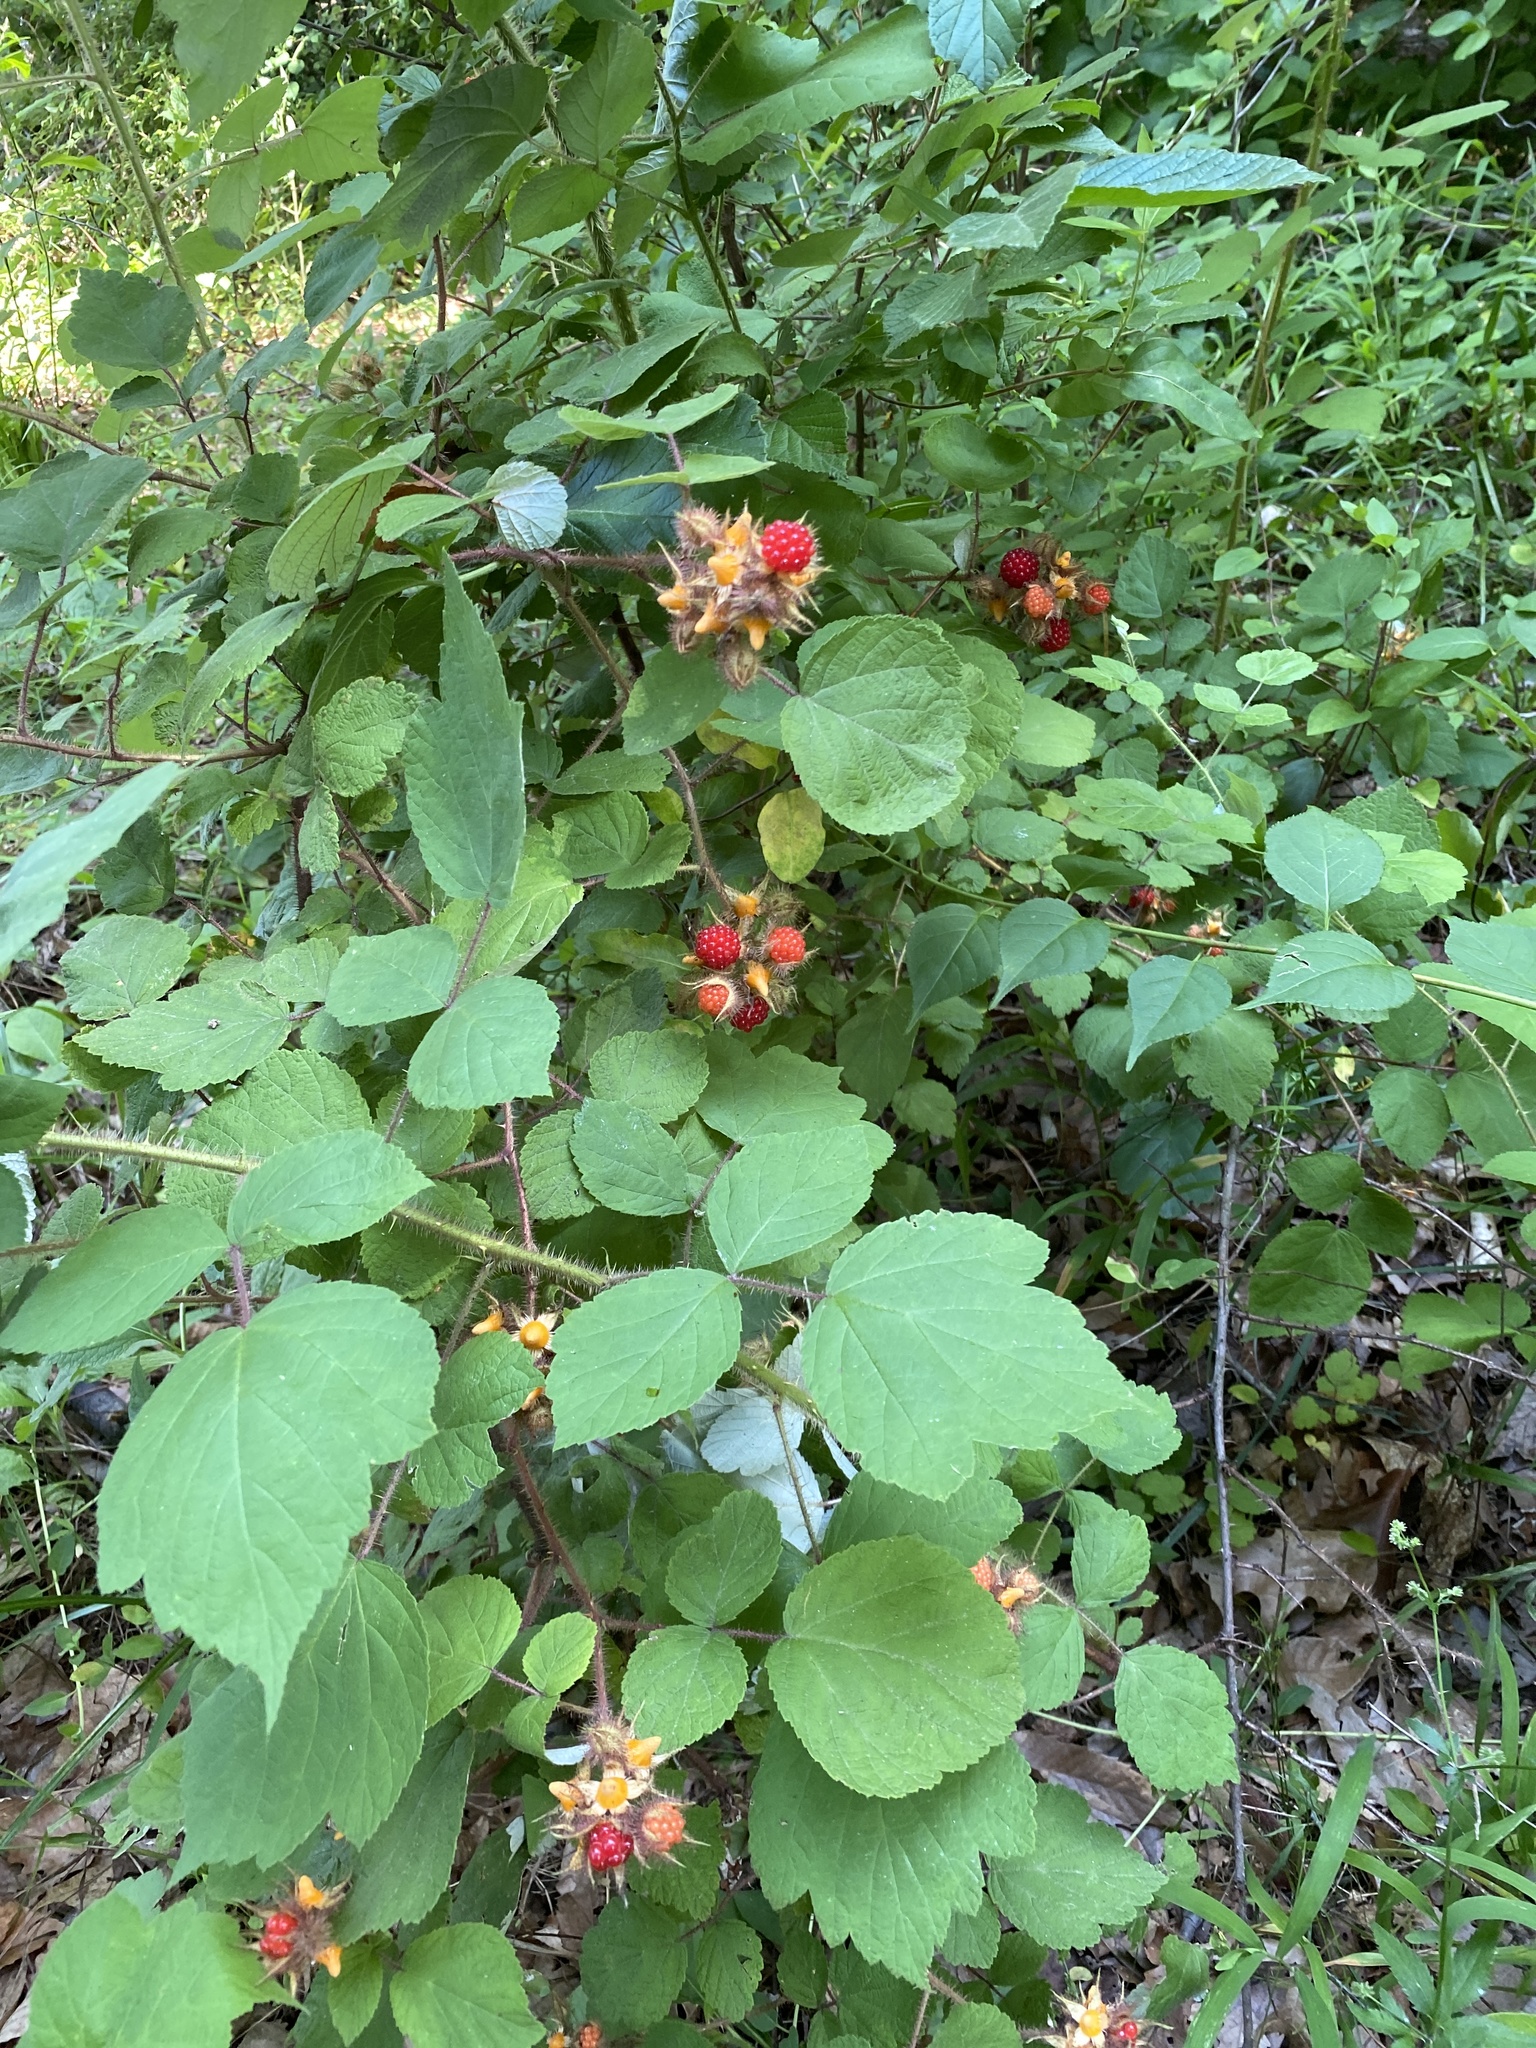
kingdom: Plantae
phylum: Tracheophyta
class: Magnoliopsida
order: Rosales
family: Rosaceae
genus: Rubus
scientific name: Rubus phoenicolasius
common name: Japanese wineberry
